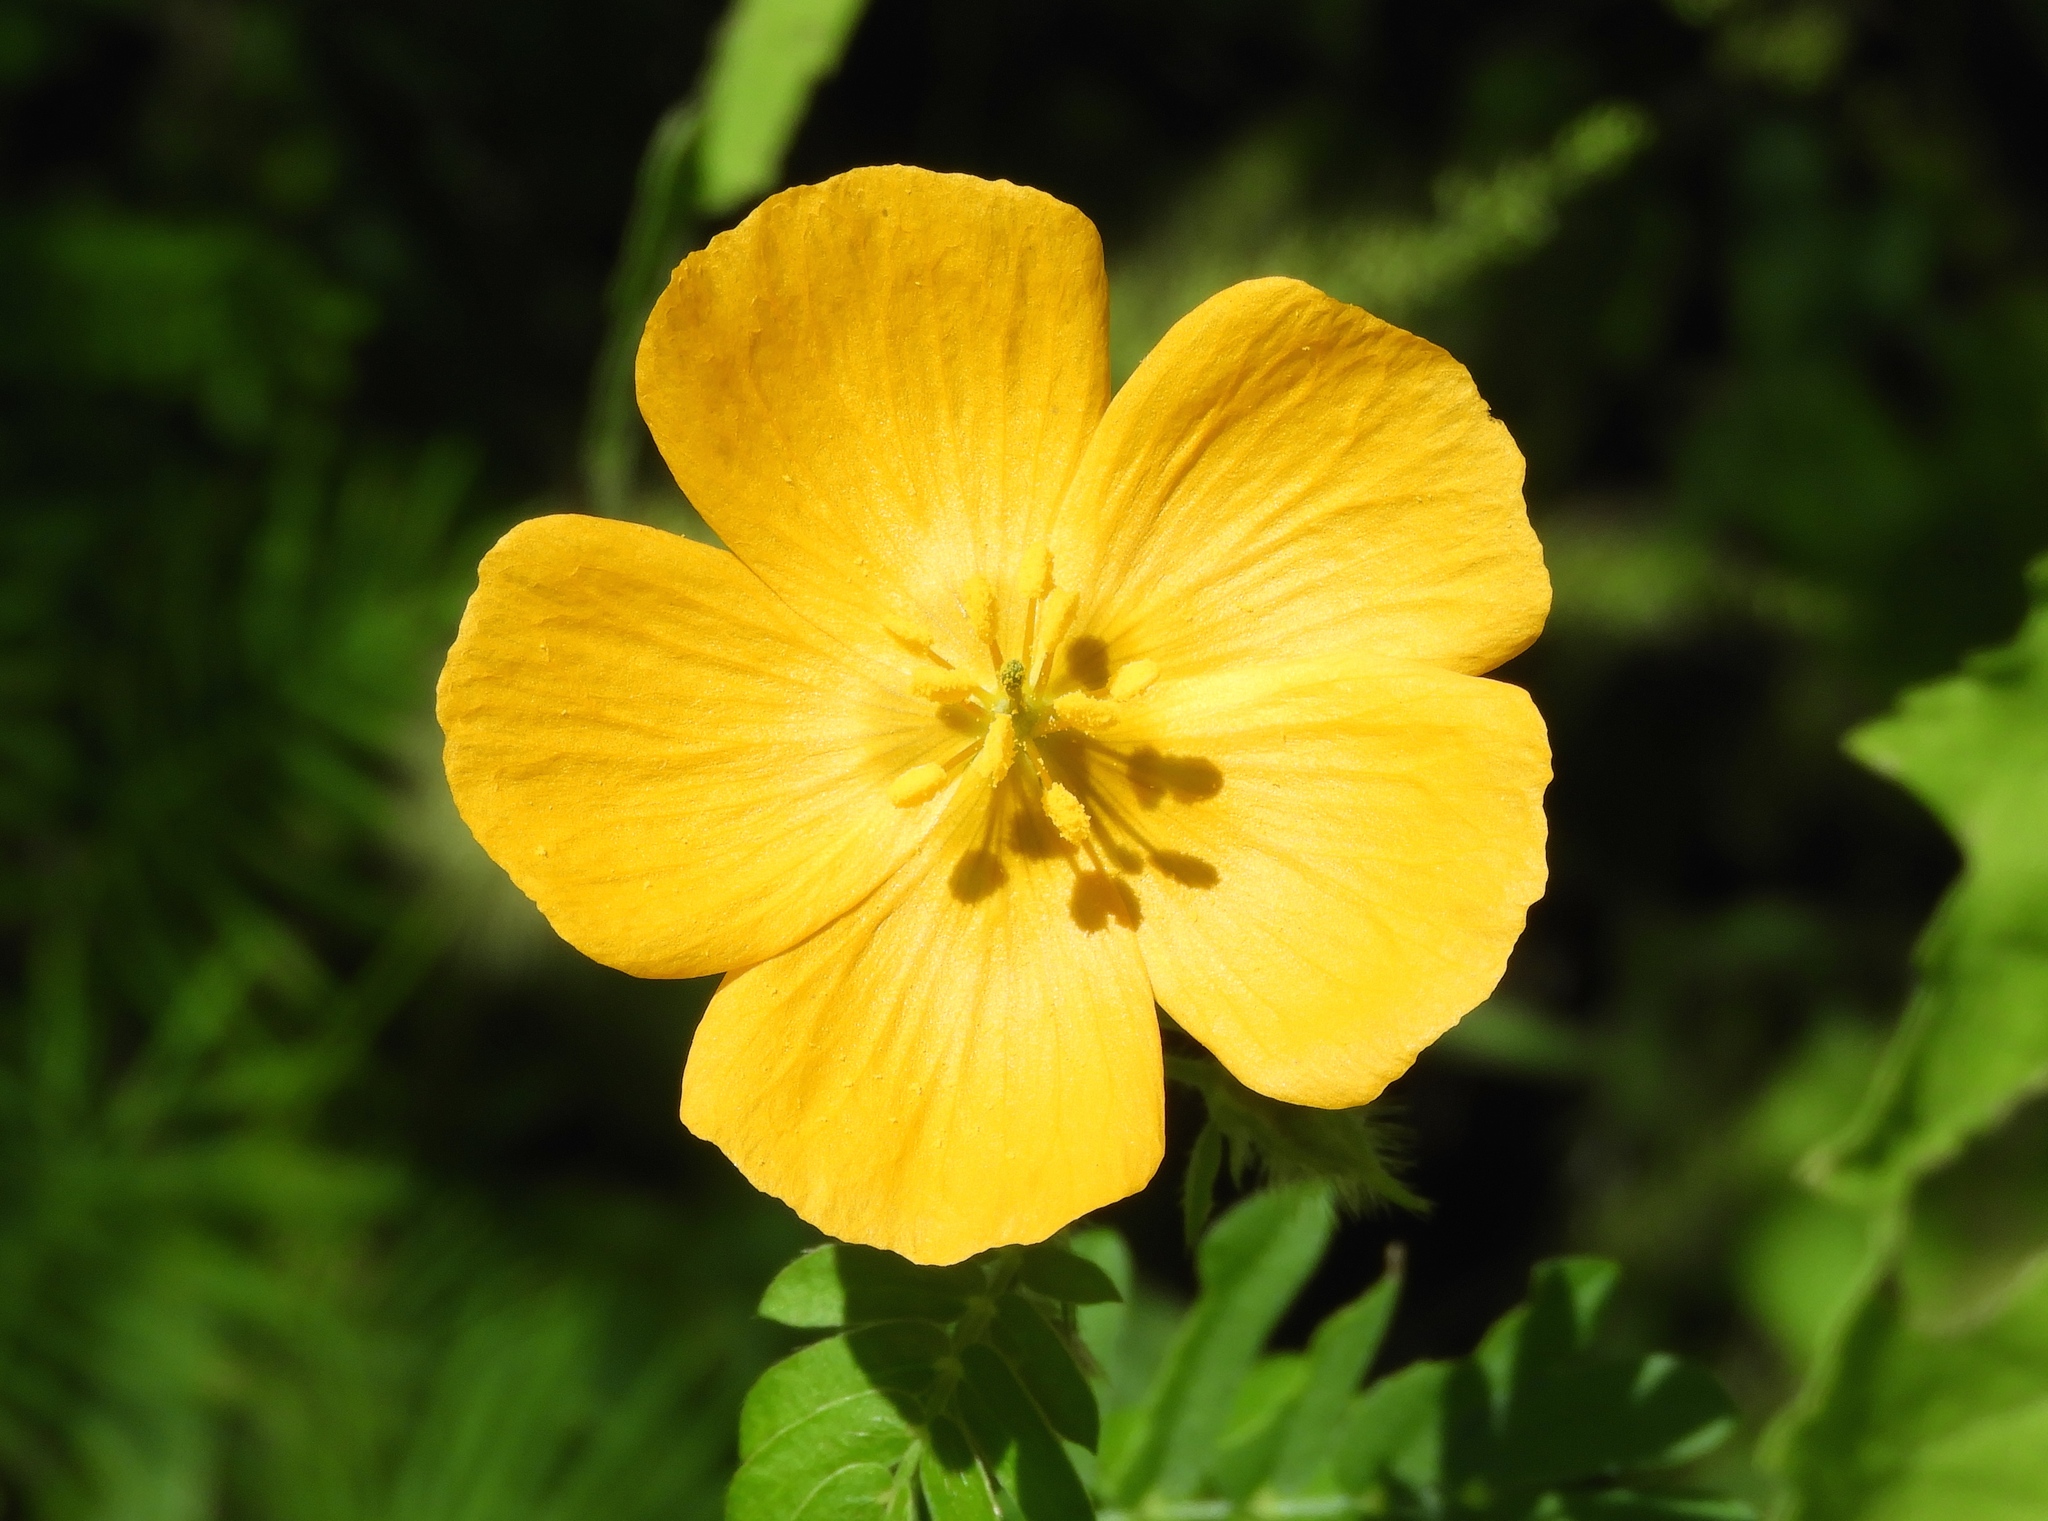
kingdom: Plantae
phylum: Tracheophyta
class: Magnoliopsida
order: Zygophyllales
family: Zygophyllaceae
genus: Kallstroemia
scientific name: Kallstroemia californica
